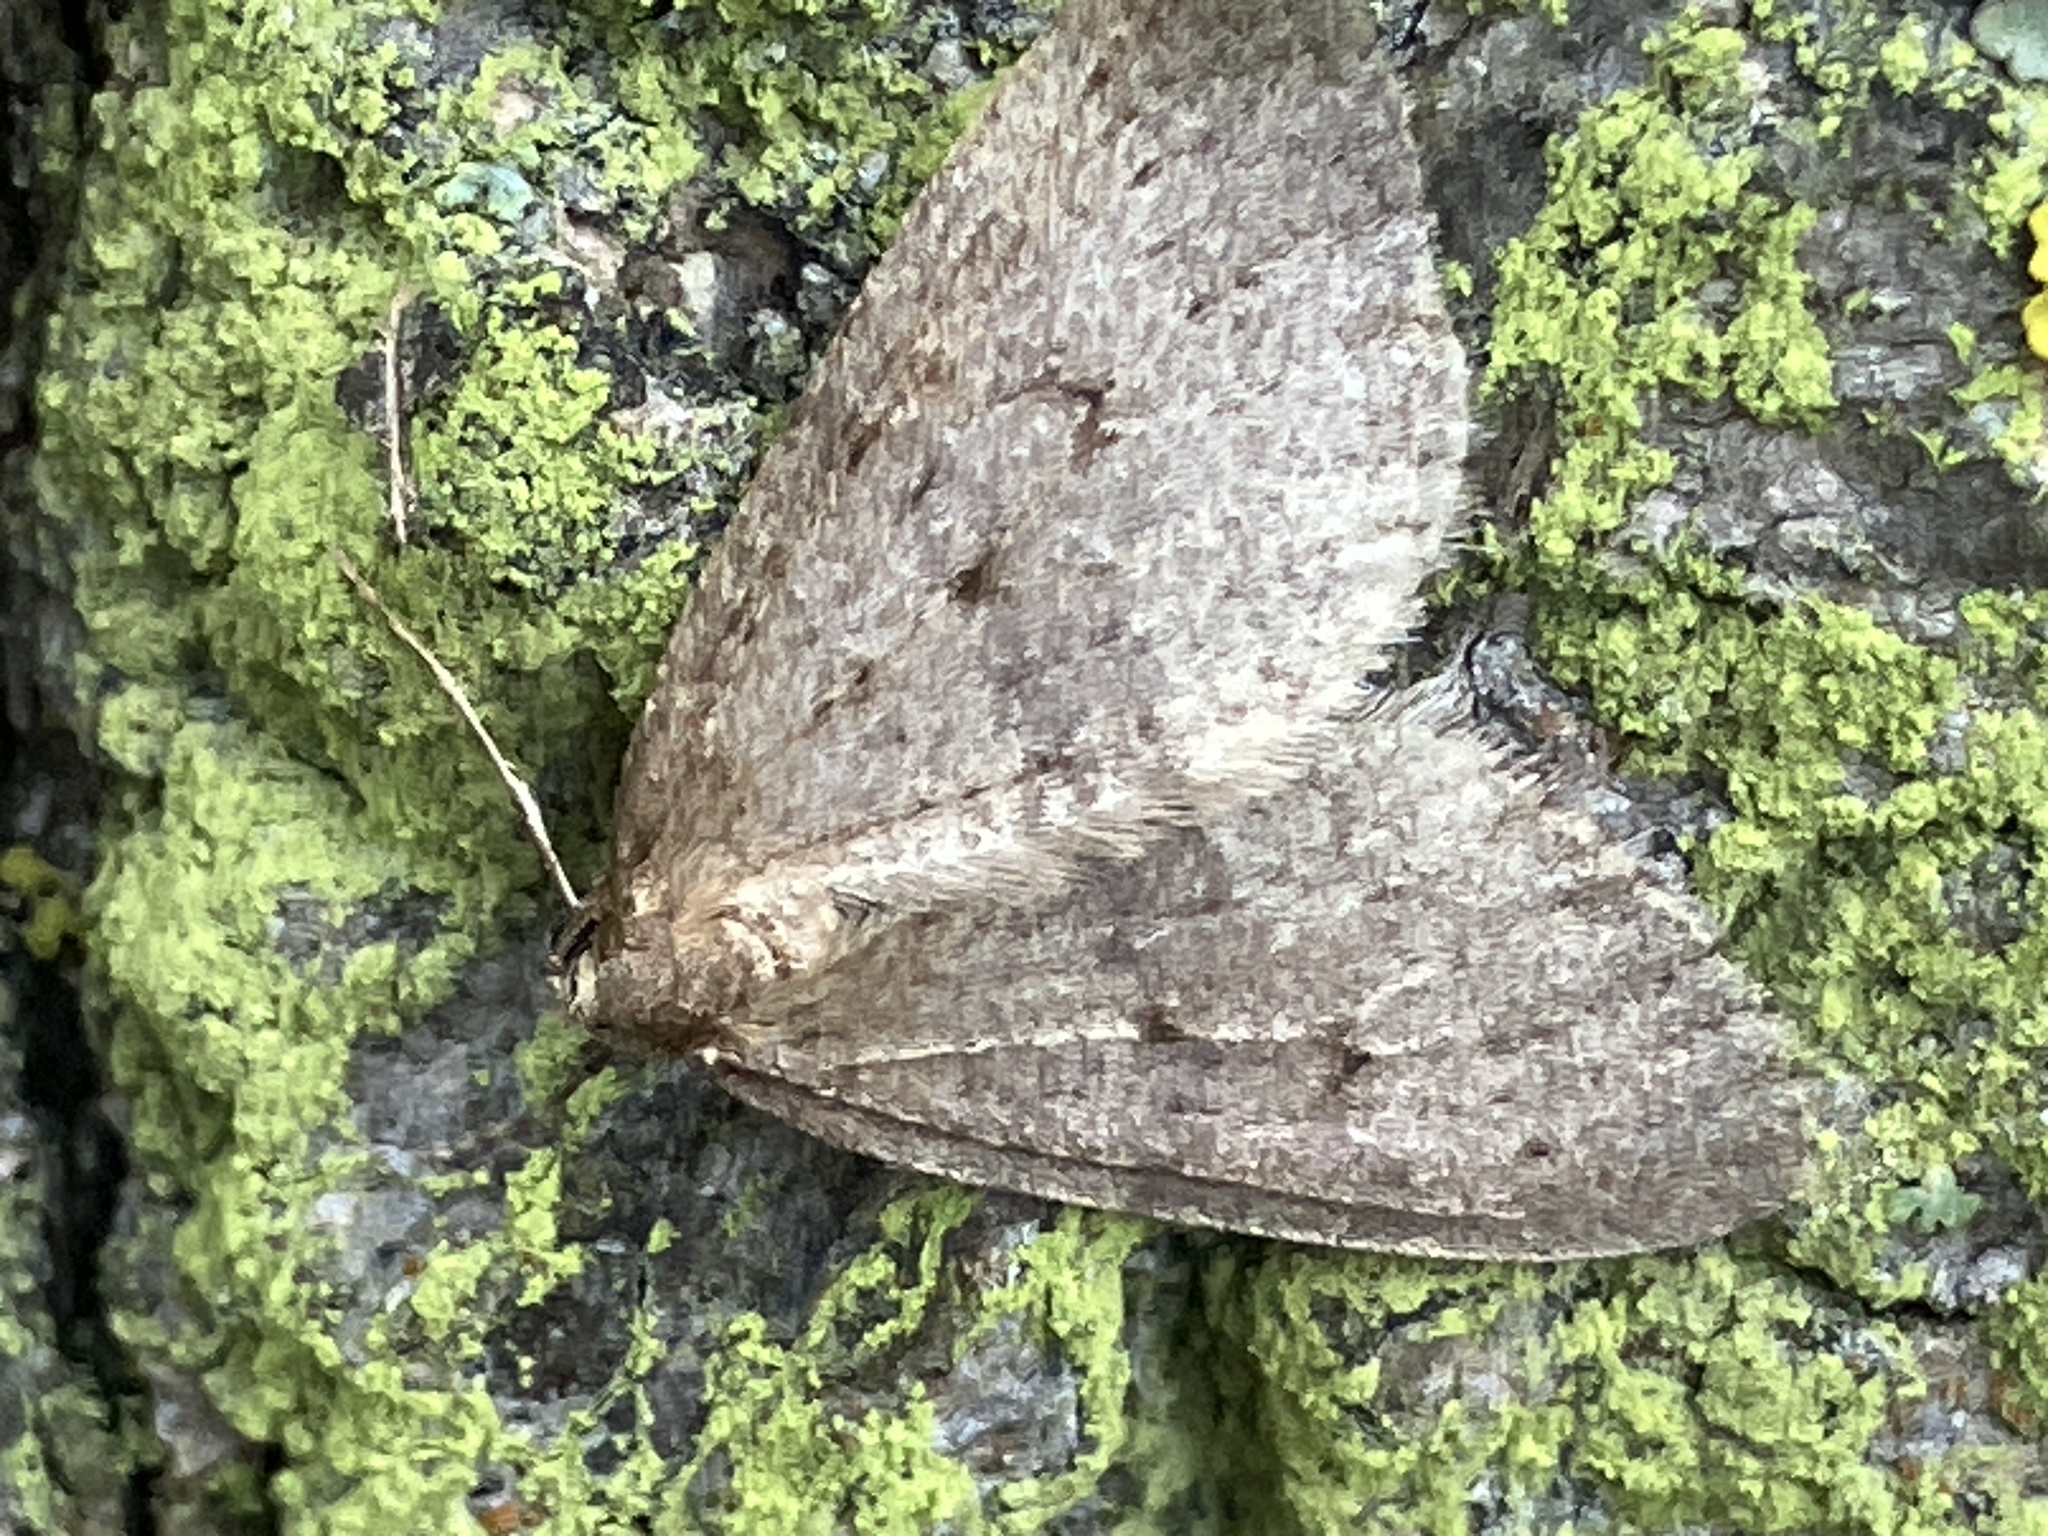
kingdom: Animalia
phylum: Arthropoda
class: Insecta
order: Lepidoptera
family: Geometridae
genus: Operophtera
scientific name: Operophtera brumata
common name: Winter moth
